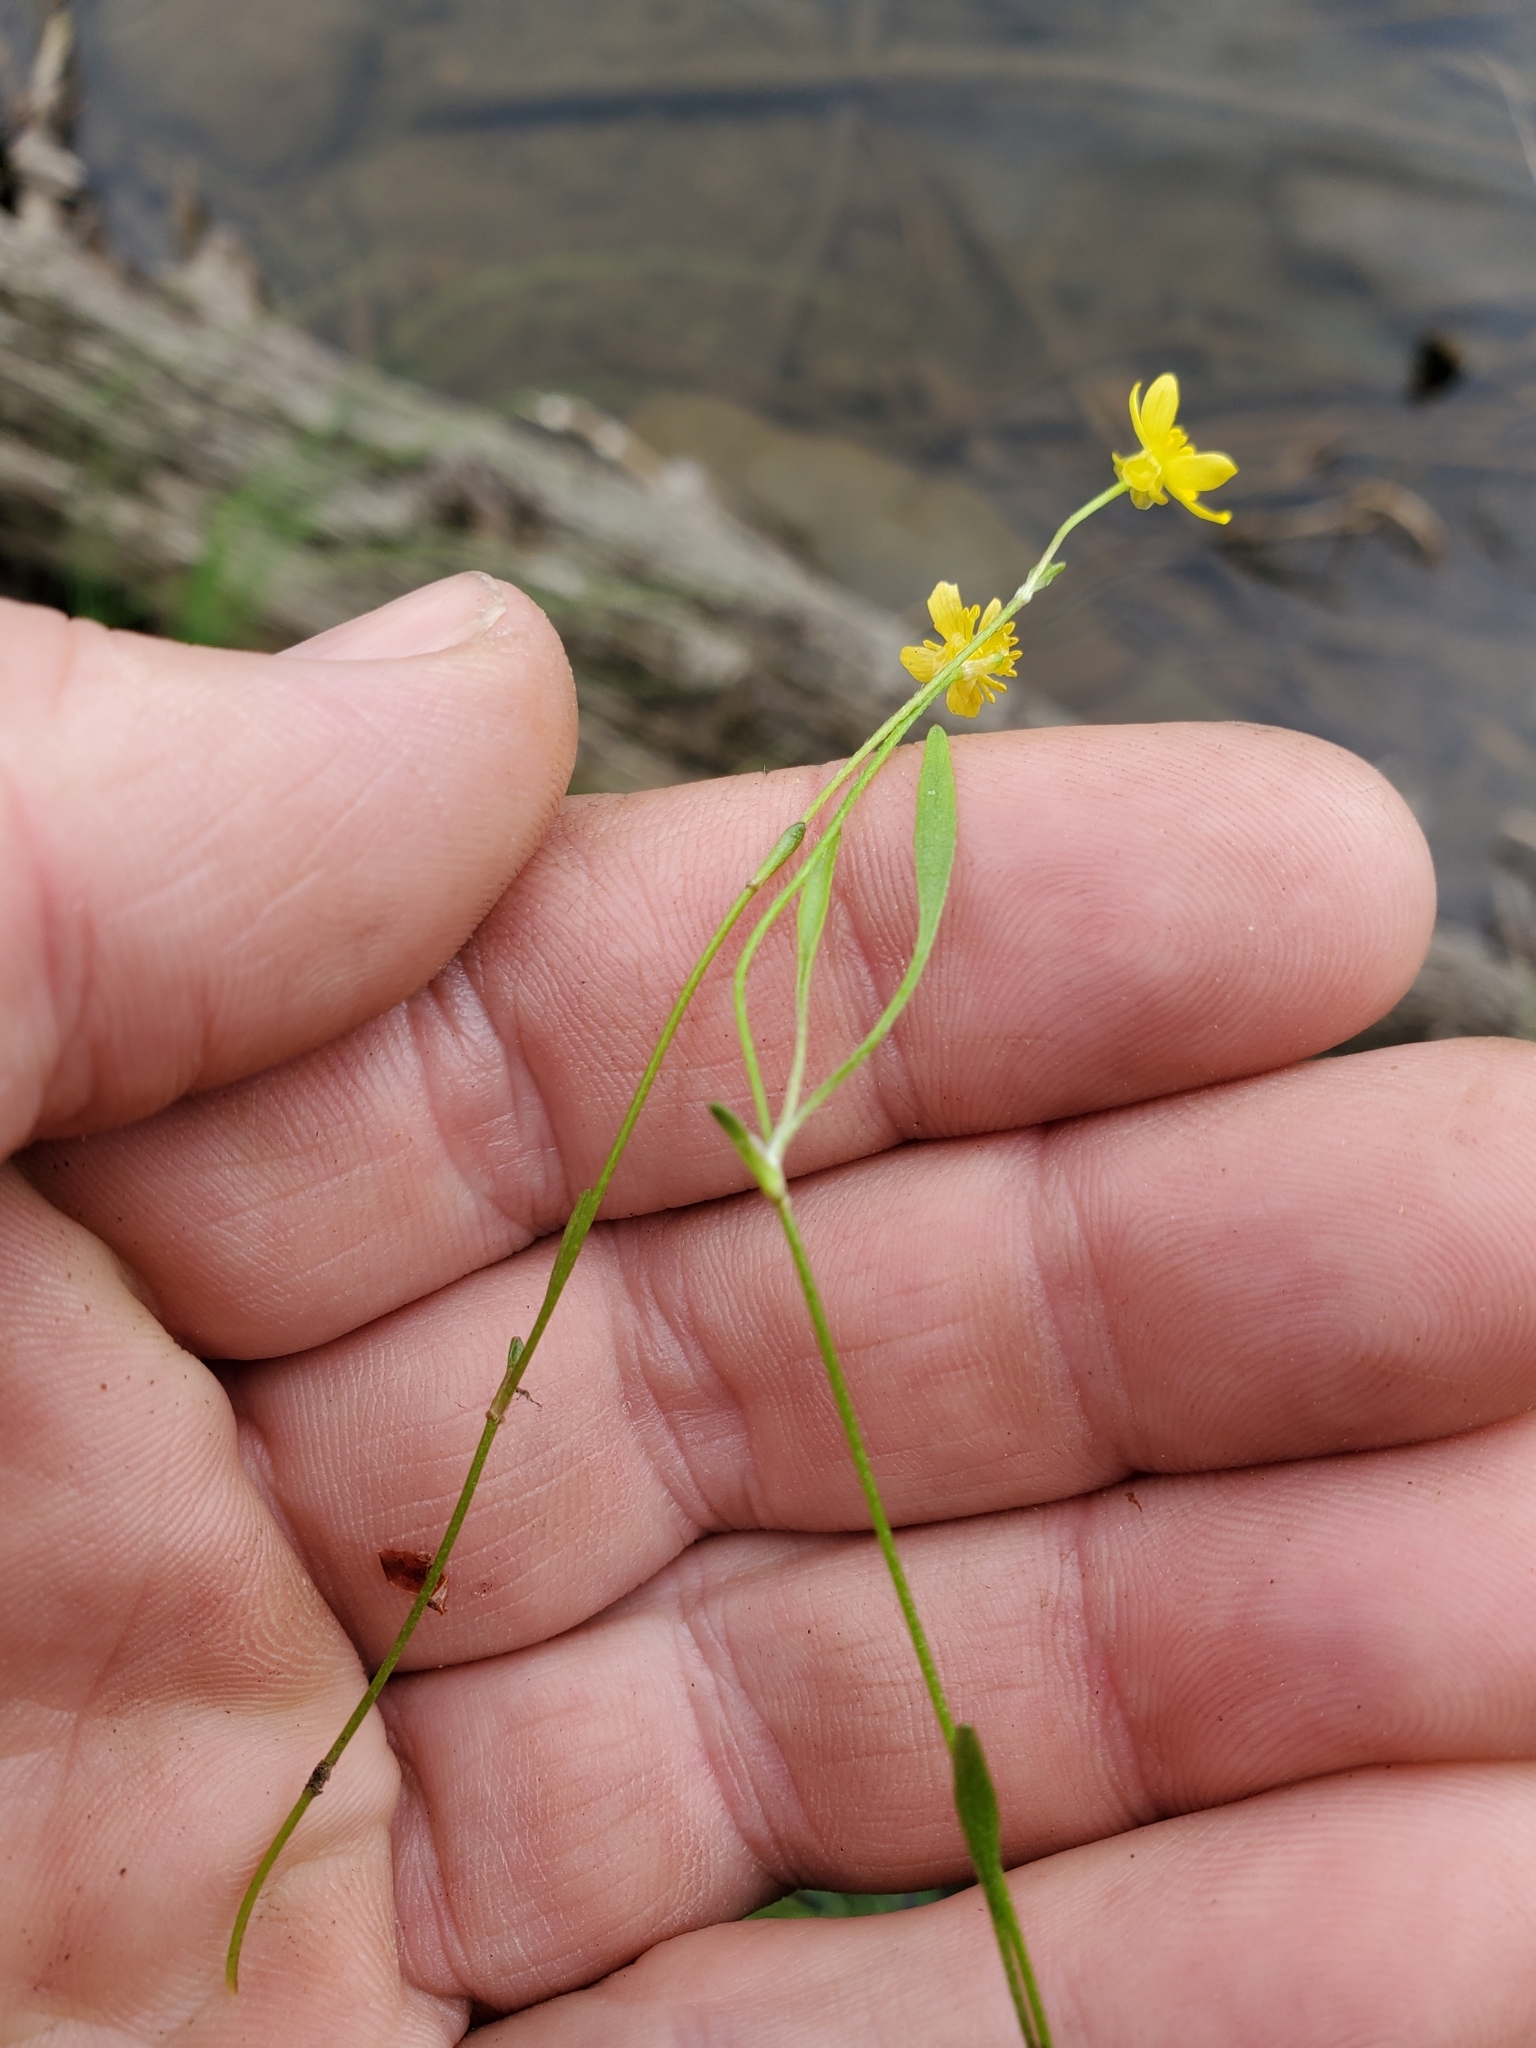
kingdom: Plantae
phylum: Tracheophyta
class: Magnoliopsida
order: Ranunculales
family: Ranunculaceae
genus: Ranunculus
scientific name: Ranunculus flammula
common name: Lesser spearwort
